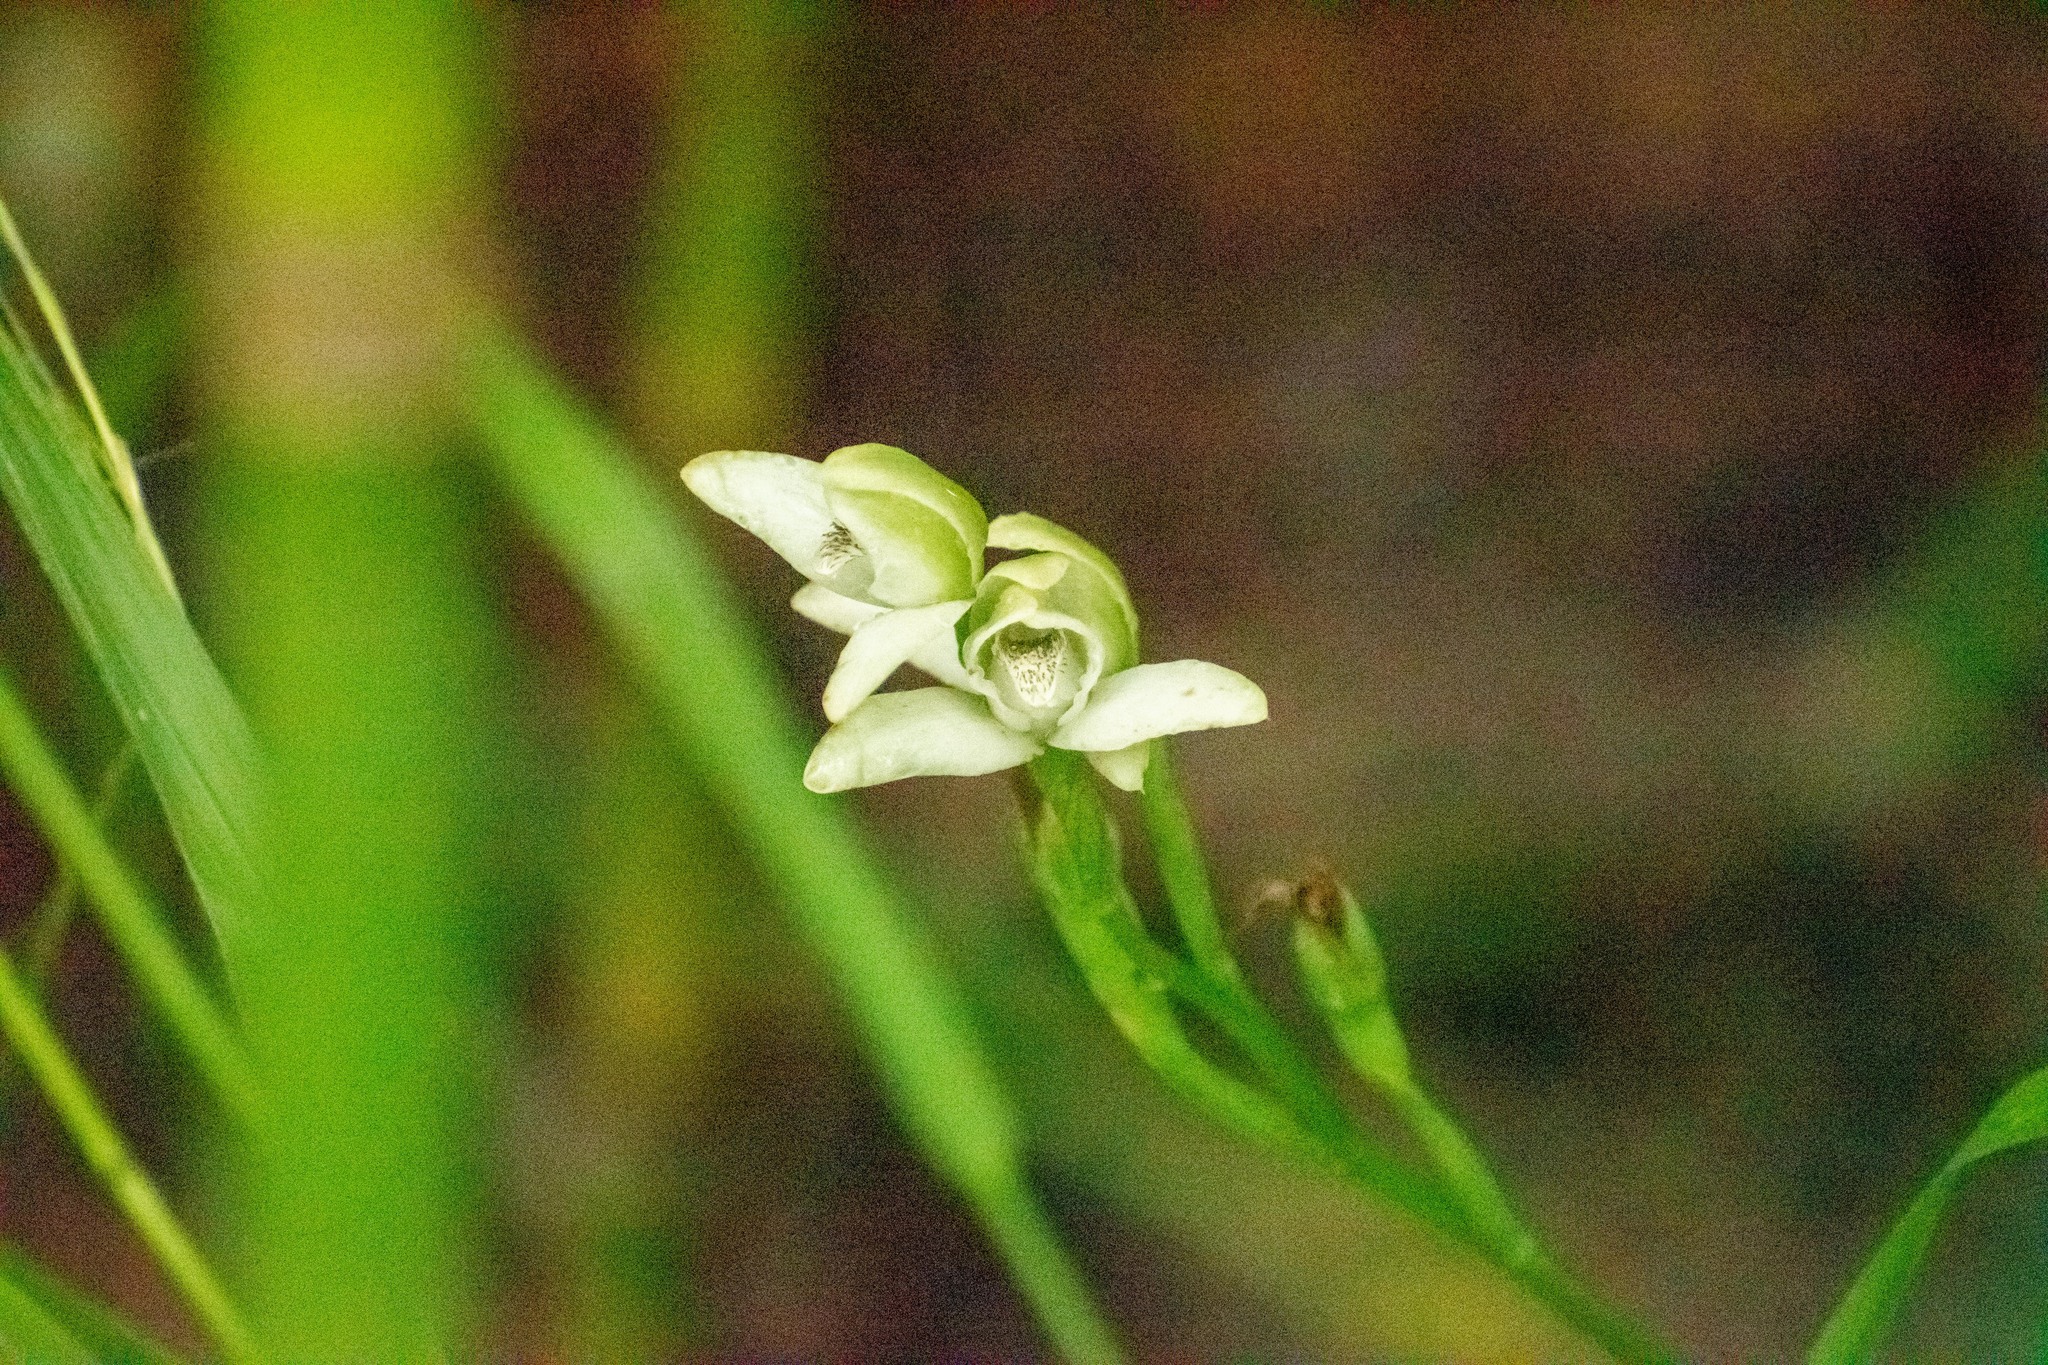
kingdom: Plantae
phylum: Tracheophyta
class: Liliopsida
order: Asparagales
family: Orchidaceae
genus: Chloraea
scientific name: Chloraea membranacea
